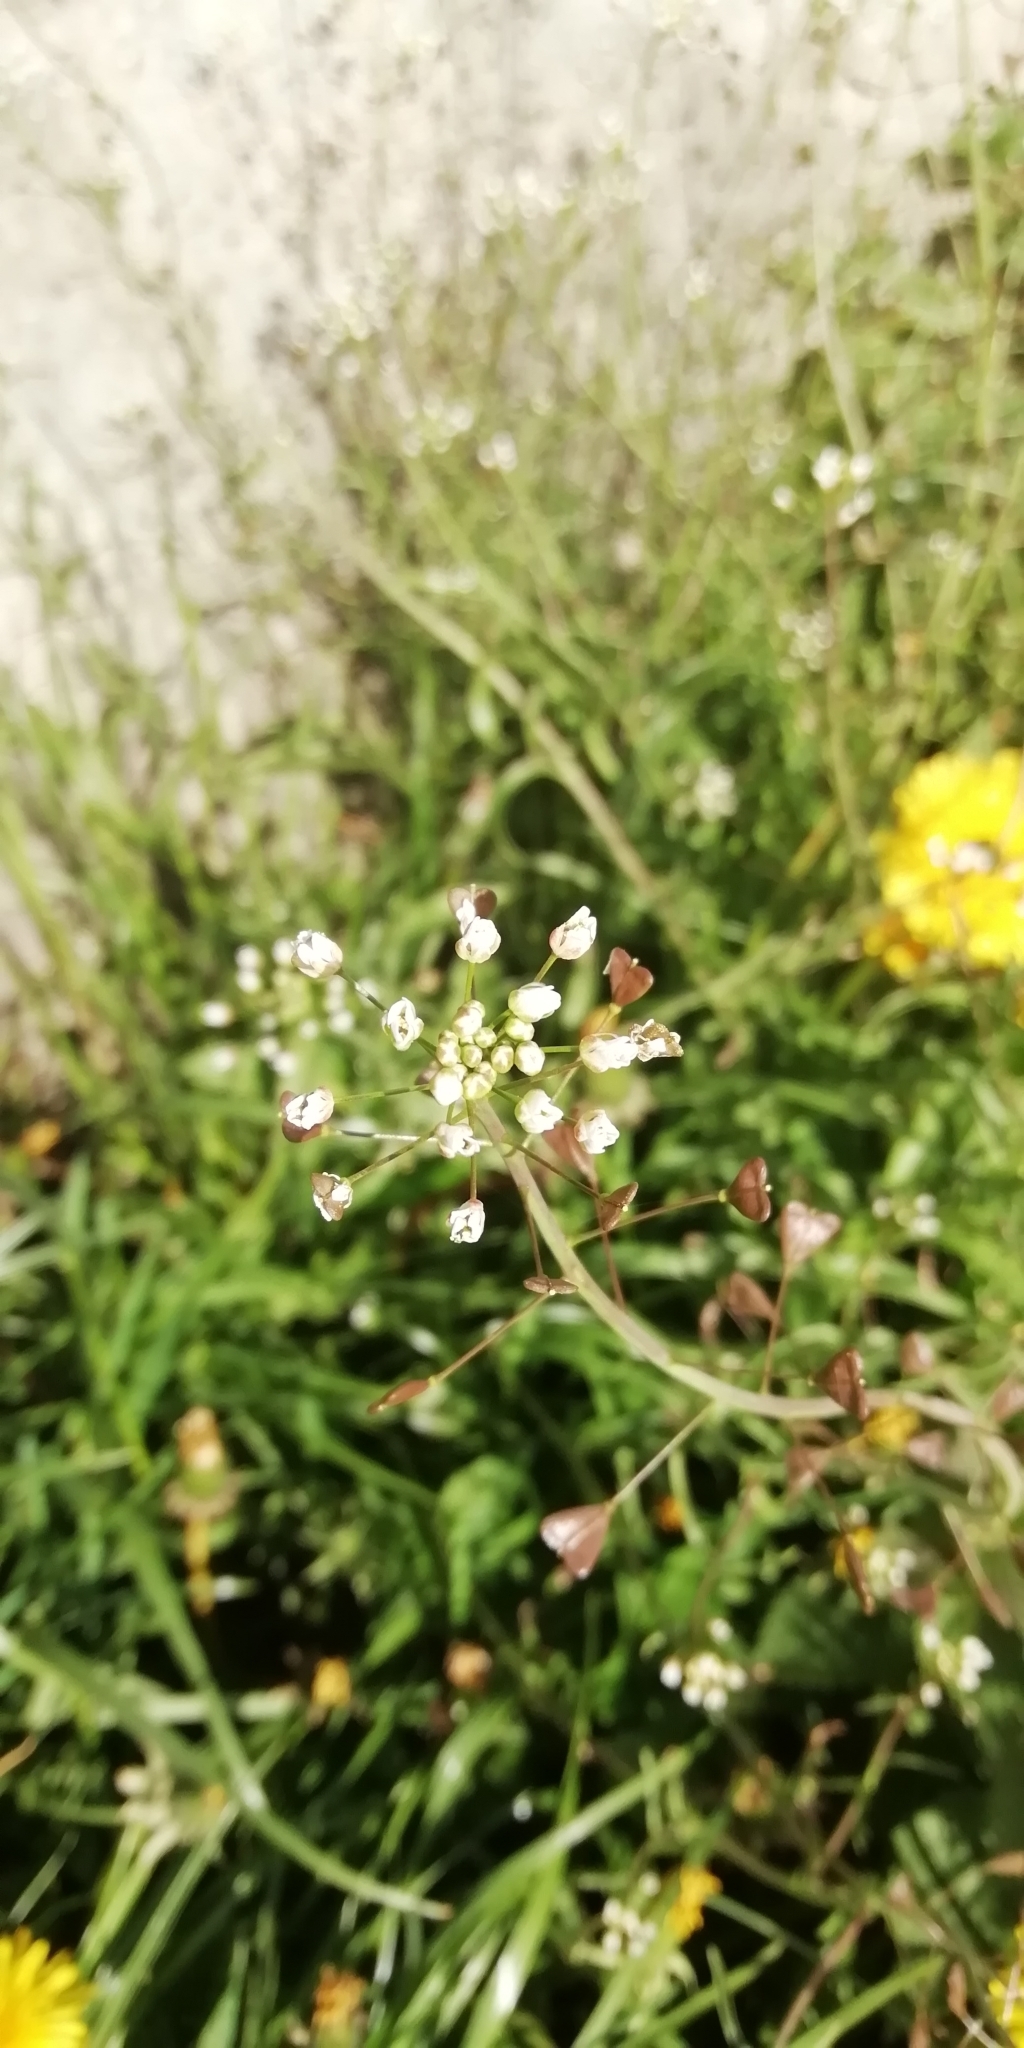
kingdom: Plantae
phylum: Tracheophyta
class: Magnoliopsida
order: Brassicales
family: Brassicaceae
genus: Capsella
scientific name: Capsella bursa-pastoris
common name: Shepherd's purse
